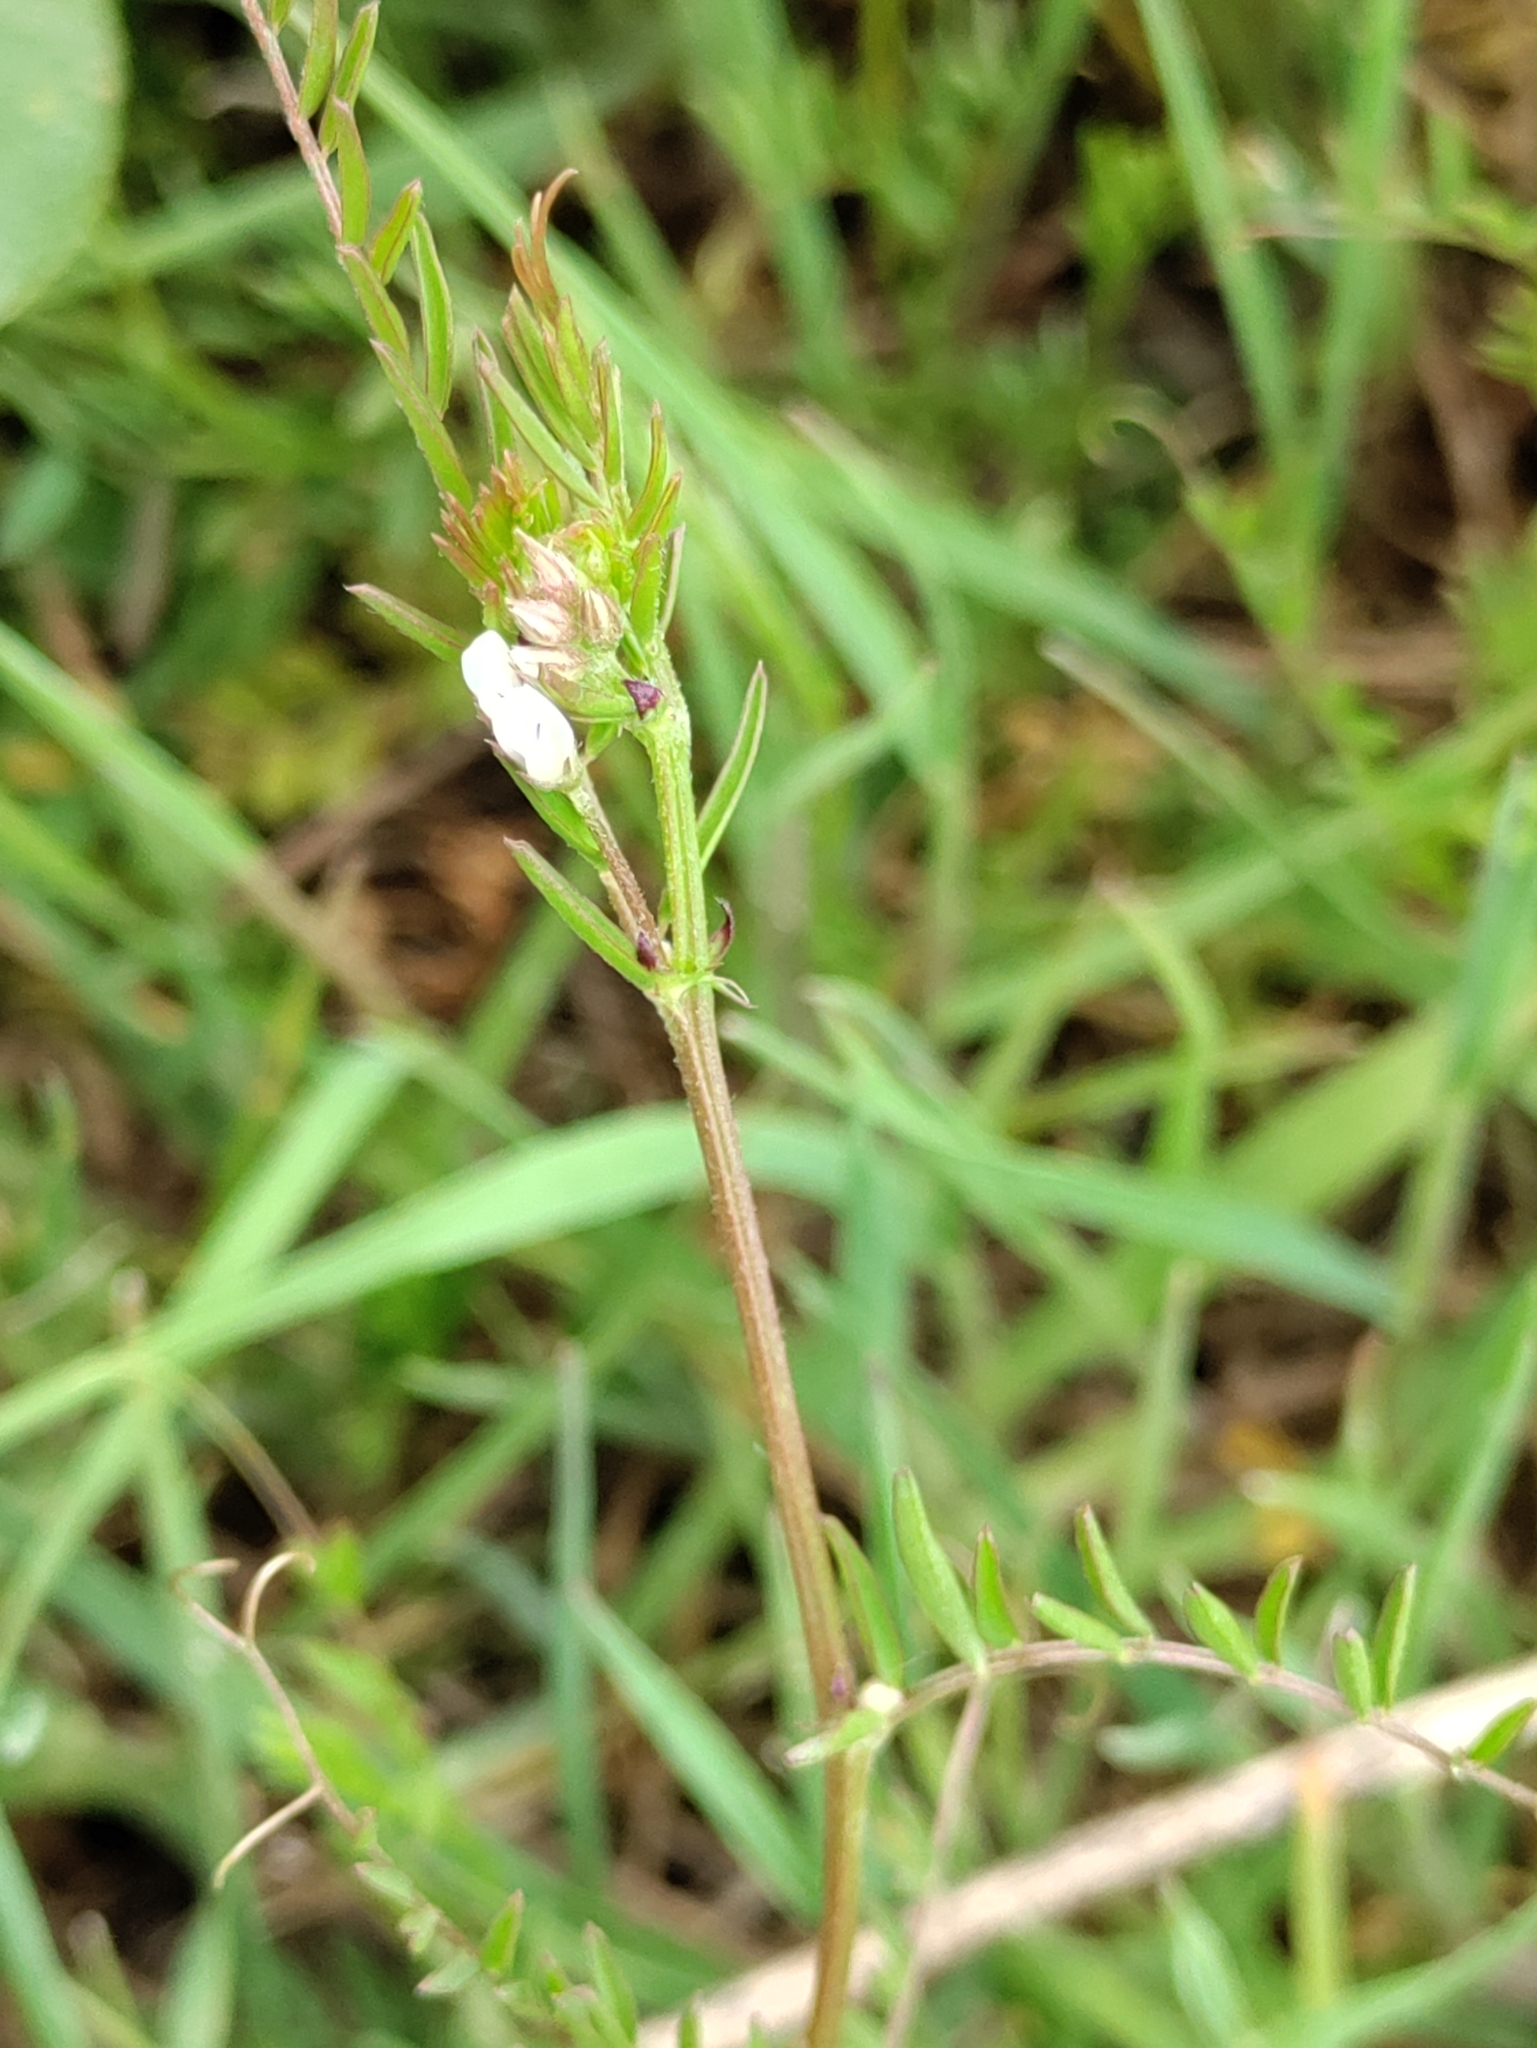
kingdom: Plantae
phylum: Tracheophyta
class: Magnoliopsida
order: Fabales
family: Fabaceae
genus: Vicia
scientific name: Vicia hirsuta
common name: Tiny vetch
